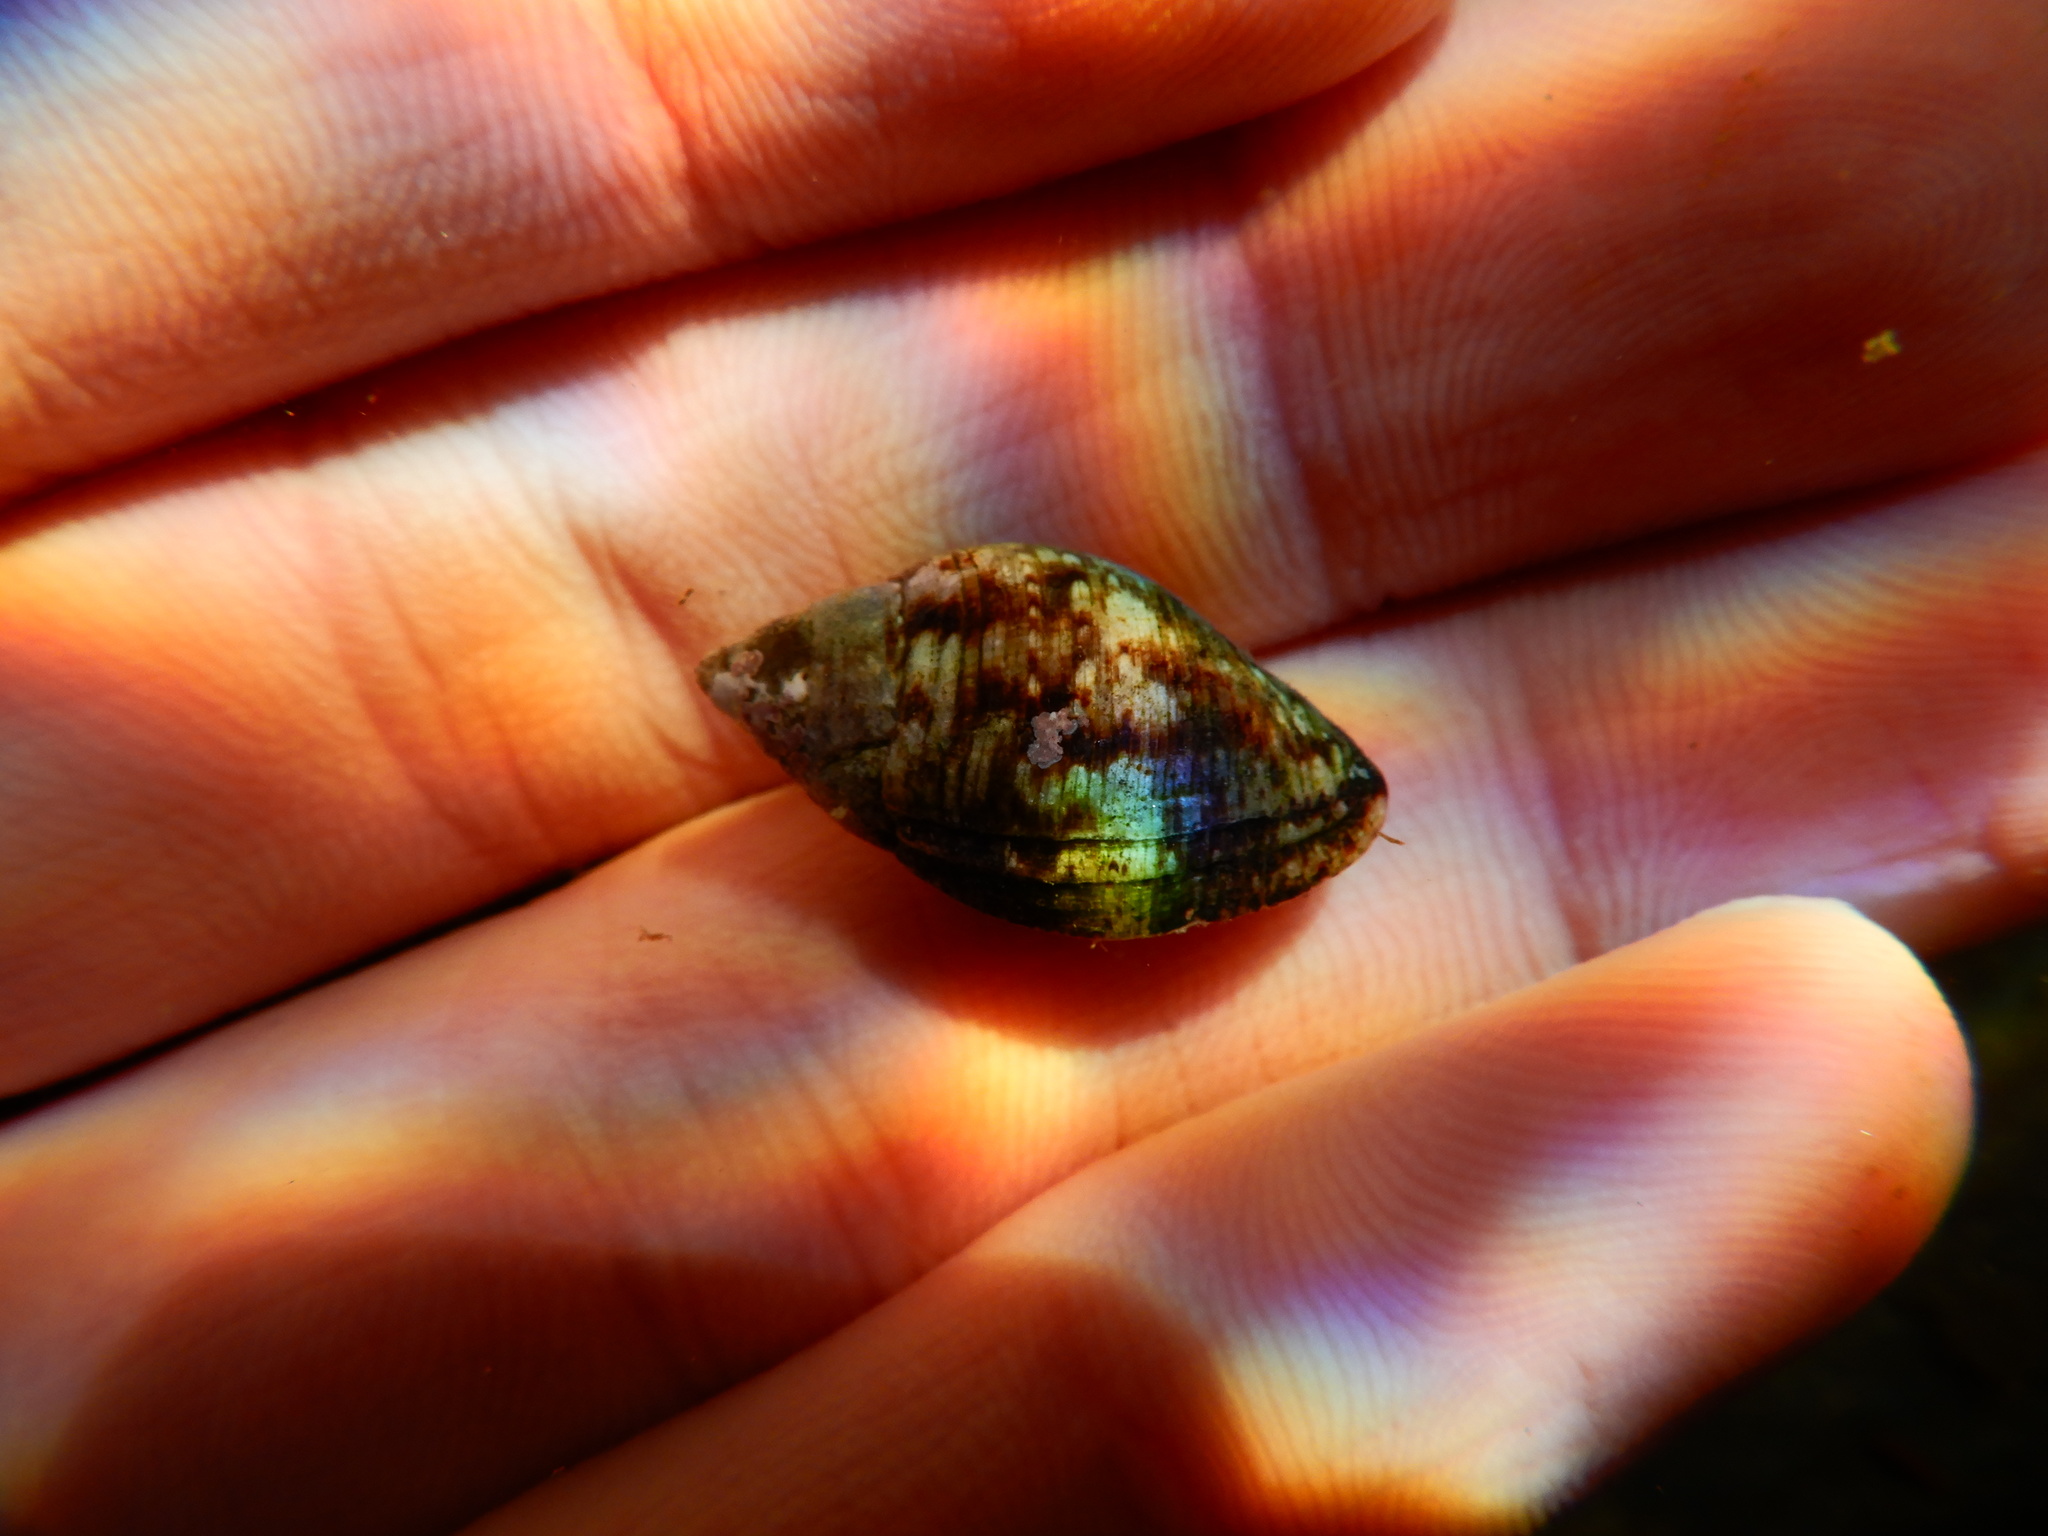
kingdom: Animalia
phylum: Mollusca
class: Gastropoda
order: Neogastropoda
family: Pisaniidae
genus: Pisania
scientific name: Pisania striata
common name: Spotted pisania
